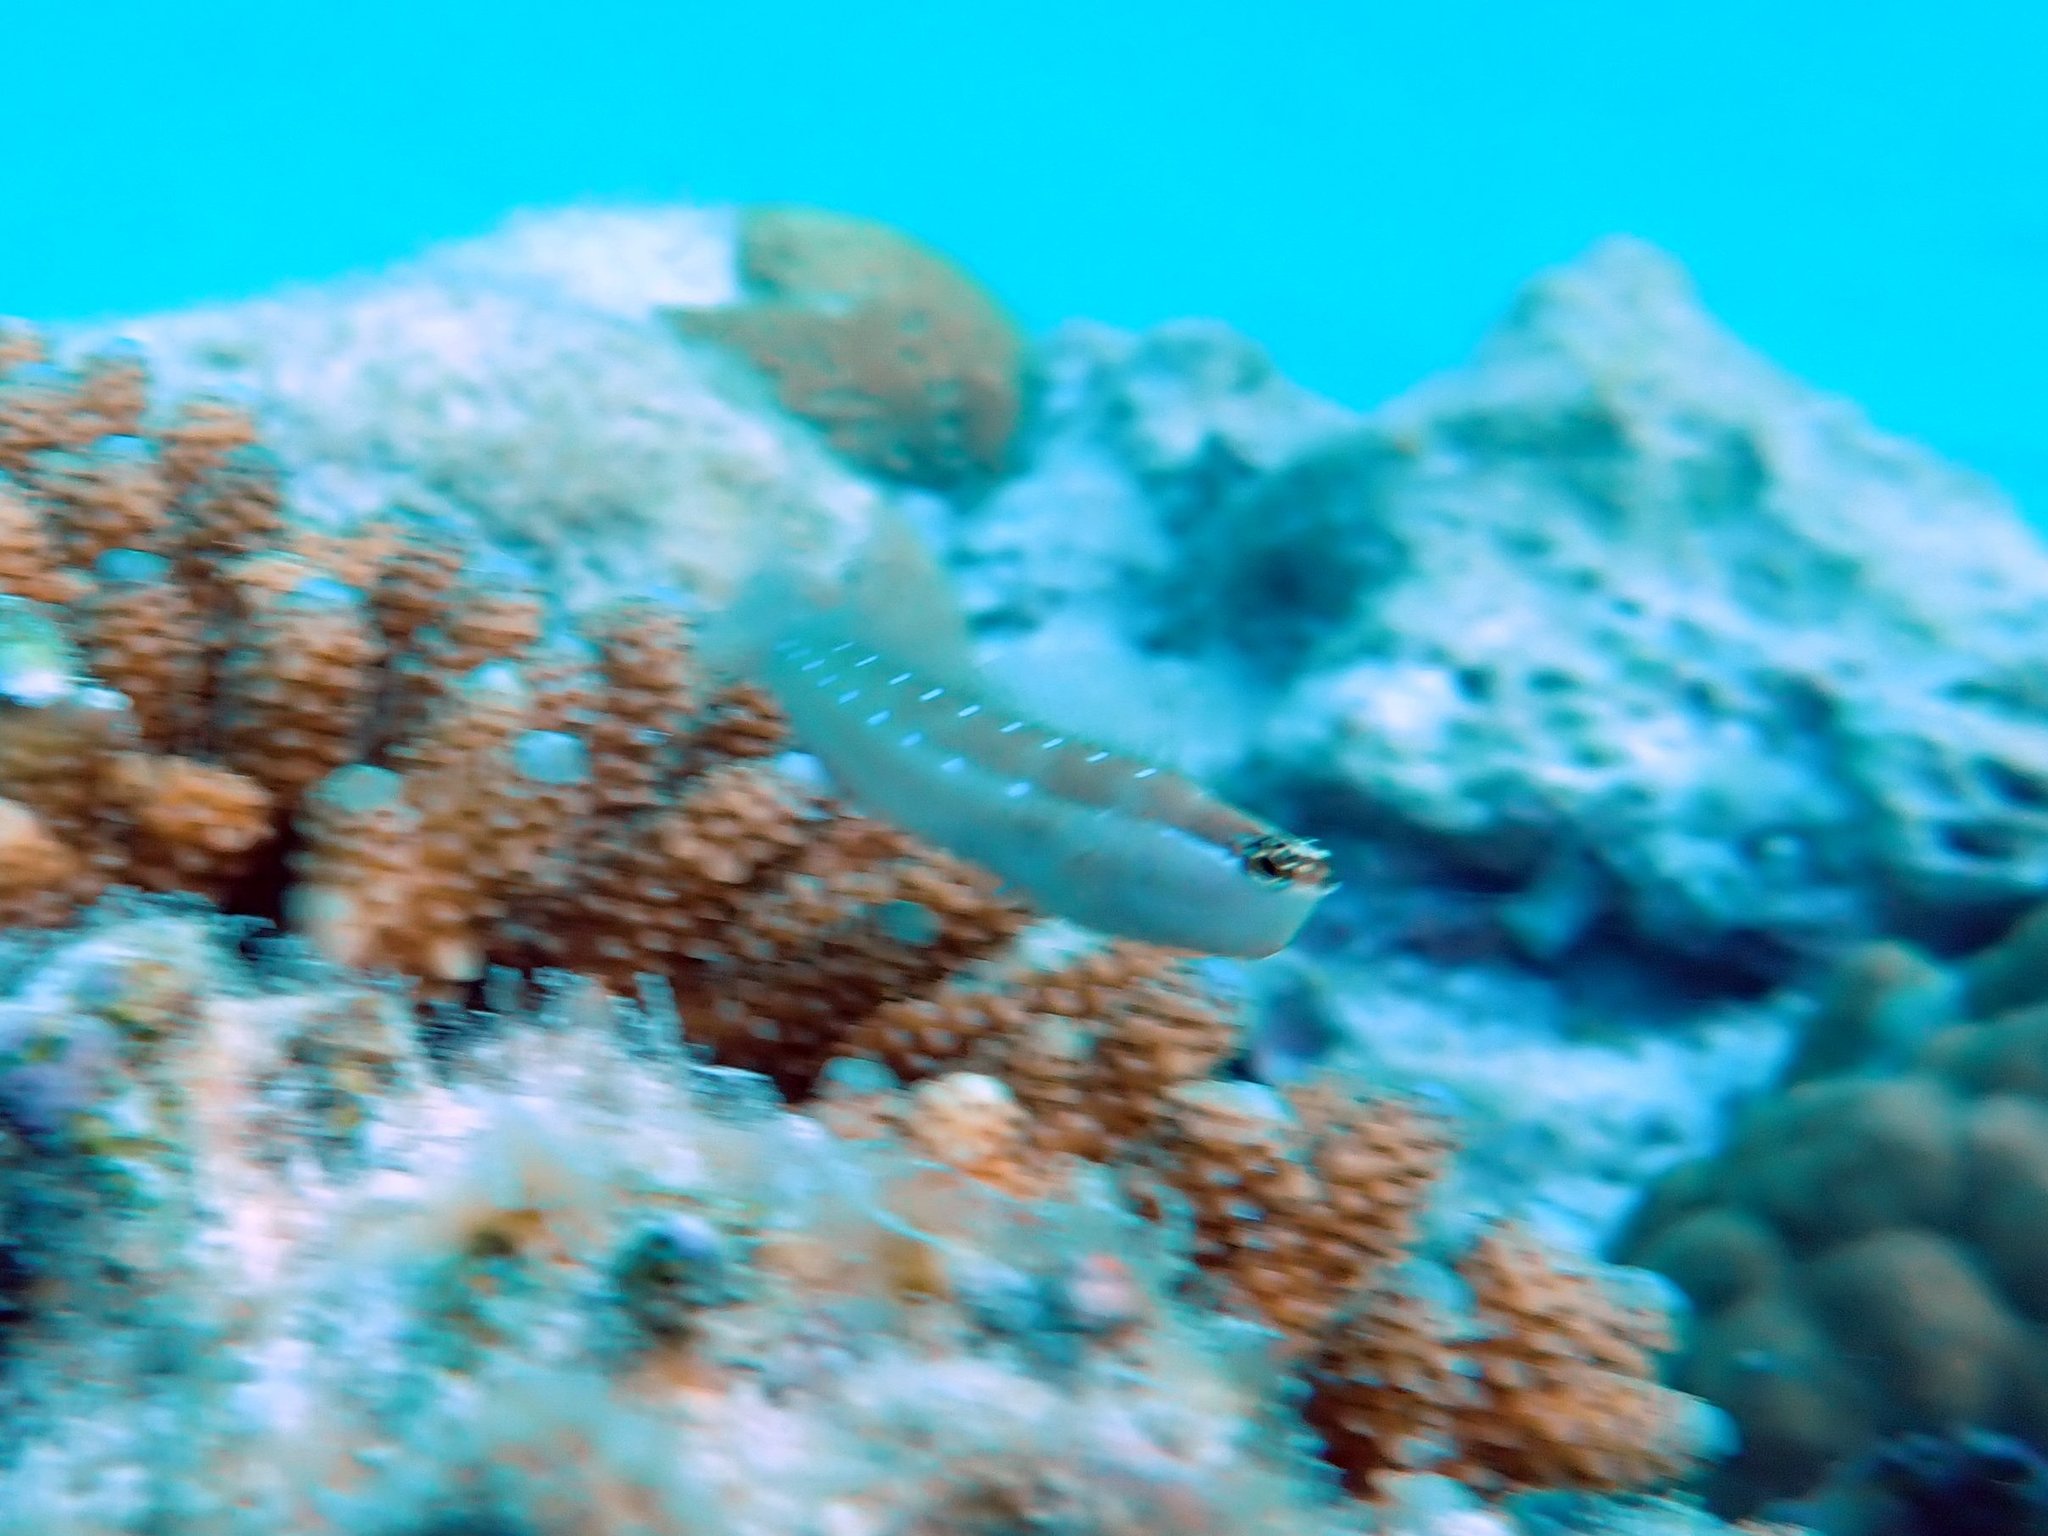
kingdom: Animalia
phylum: Chordata
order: Perciformes
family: Blenniidae
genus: Ecsenius
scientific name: Ecsenius mandibularis
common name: Queensland blenny
